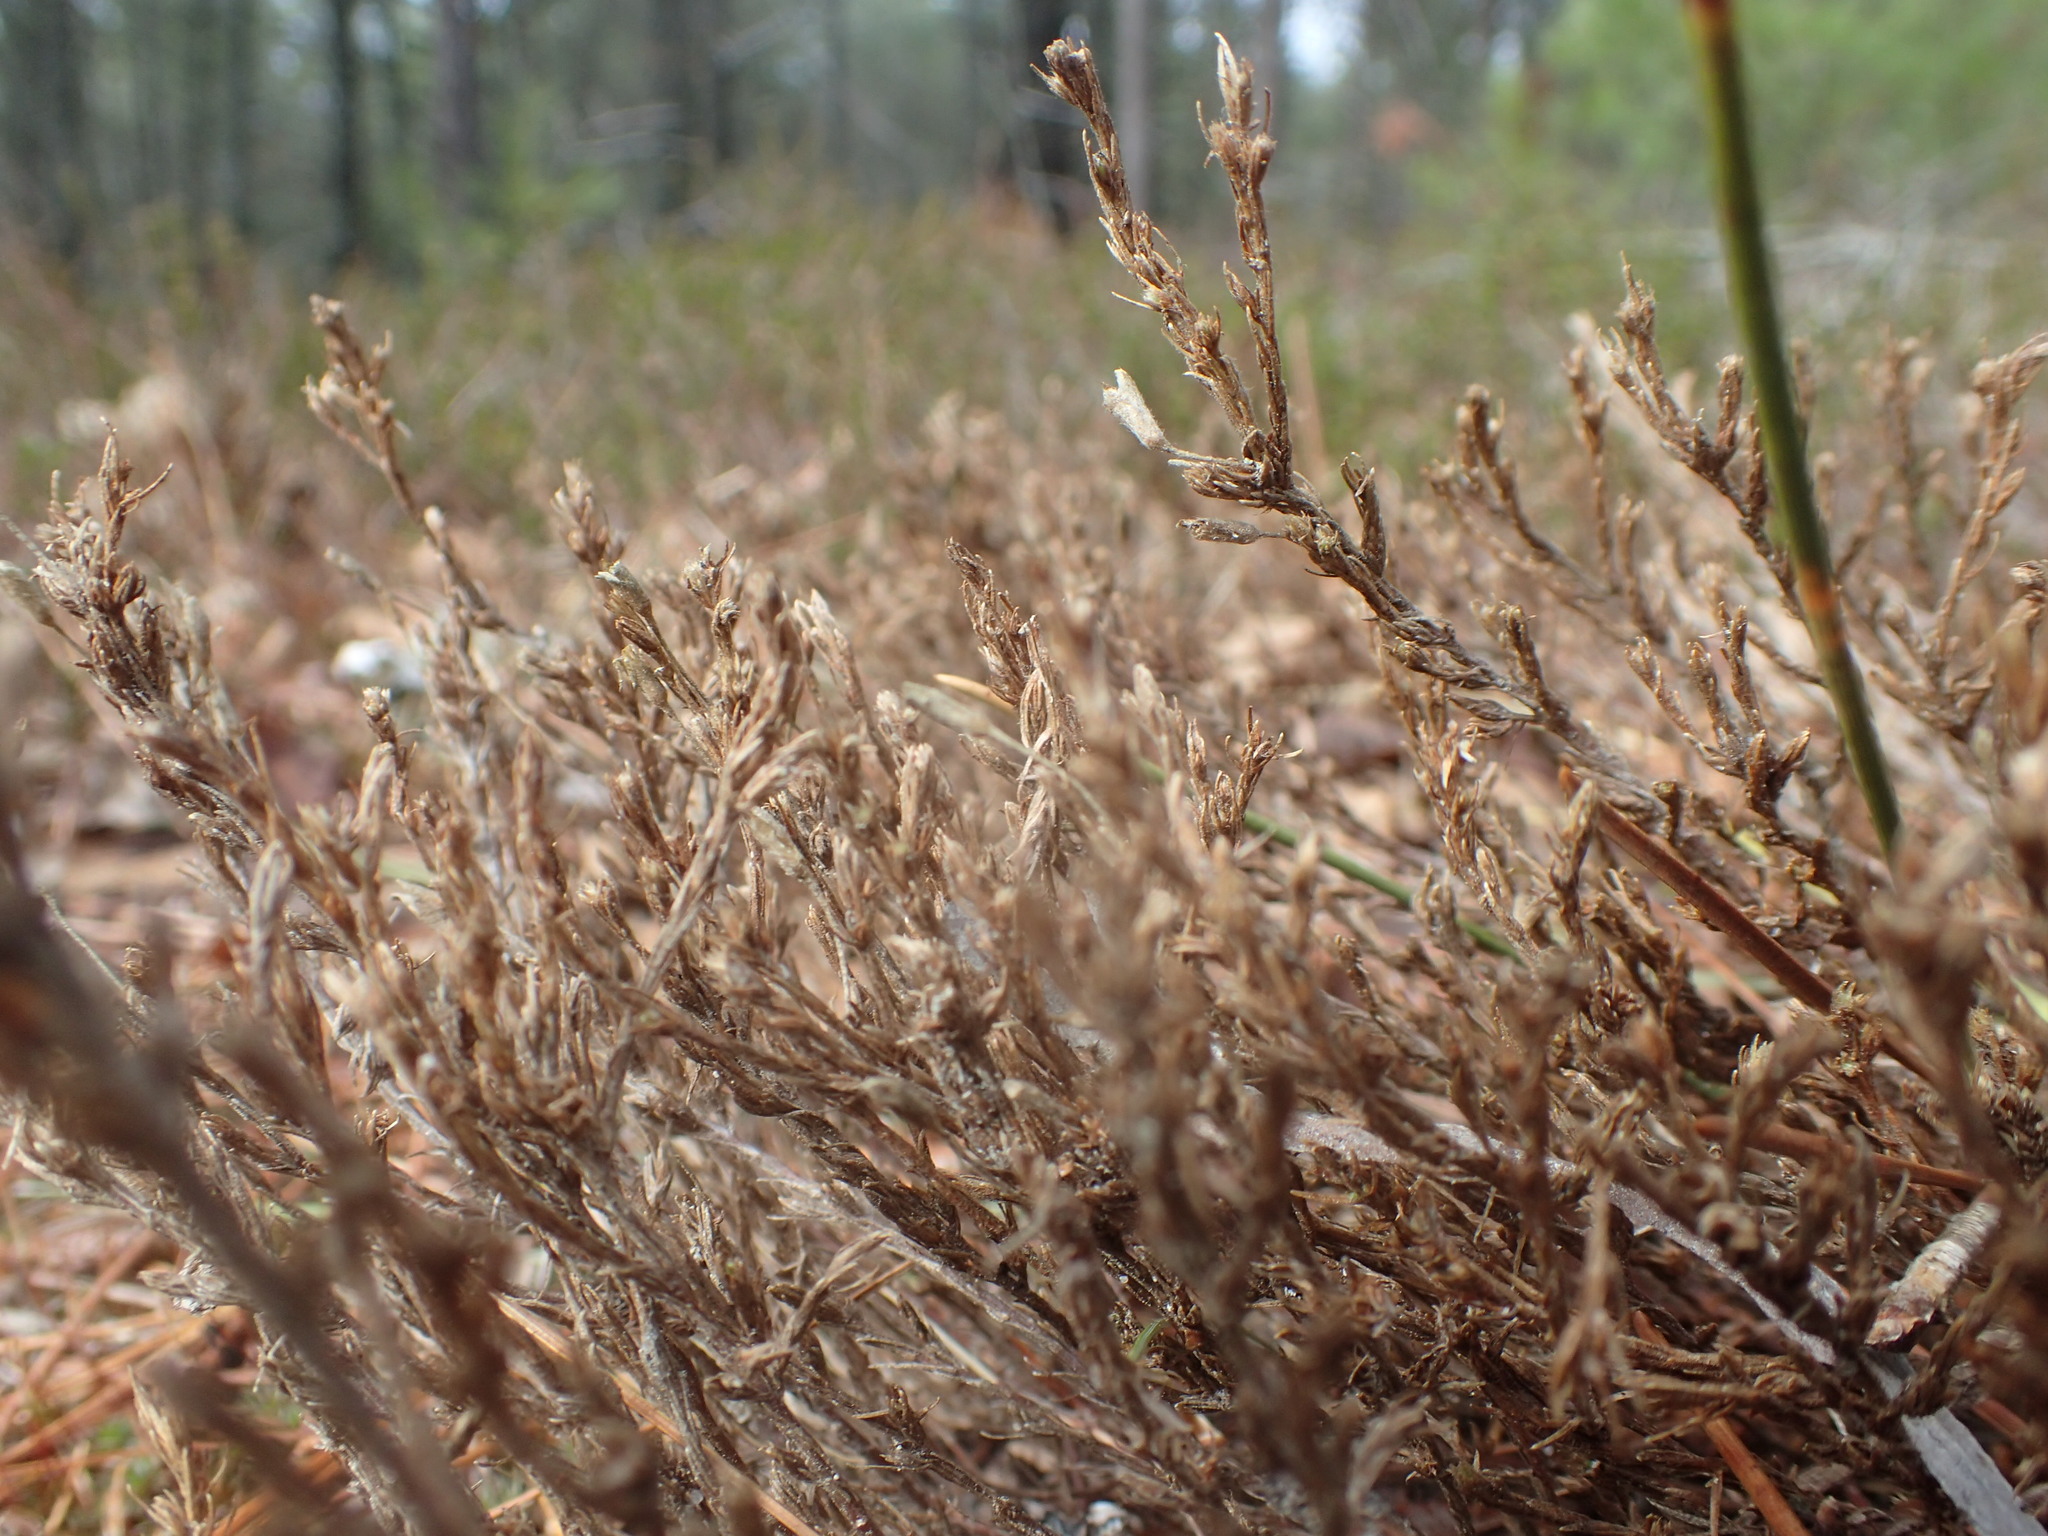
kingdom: Plantae
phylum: Tracheophyta
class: Magnoliopsida
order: Malvales
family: Cistaceae
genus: Hudsonia
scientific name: Hudsonia ericoides
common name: Golden-heather
